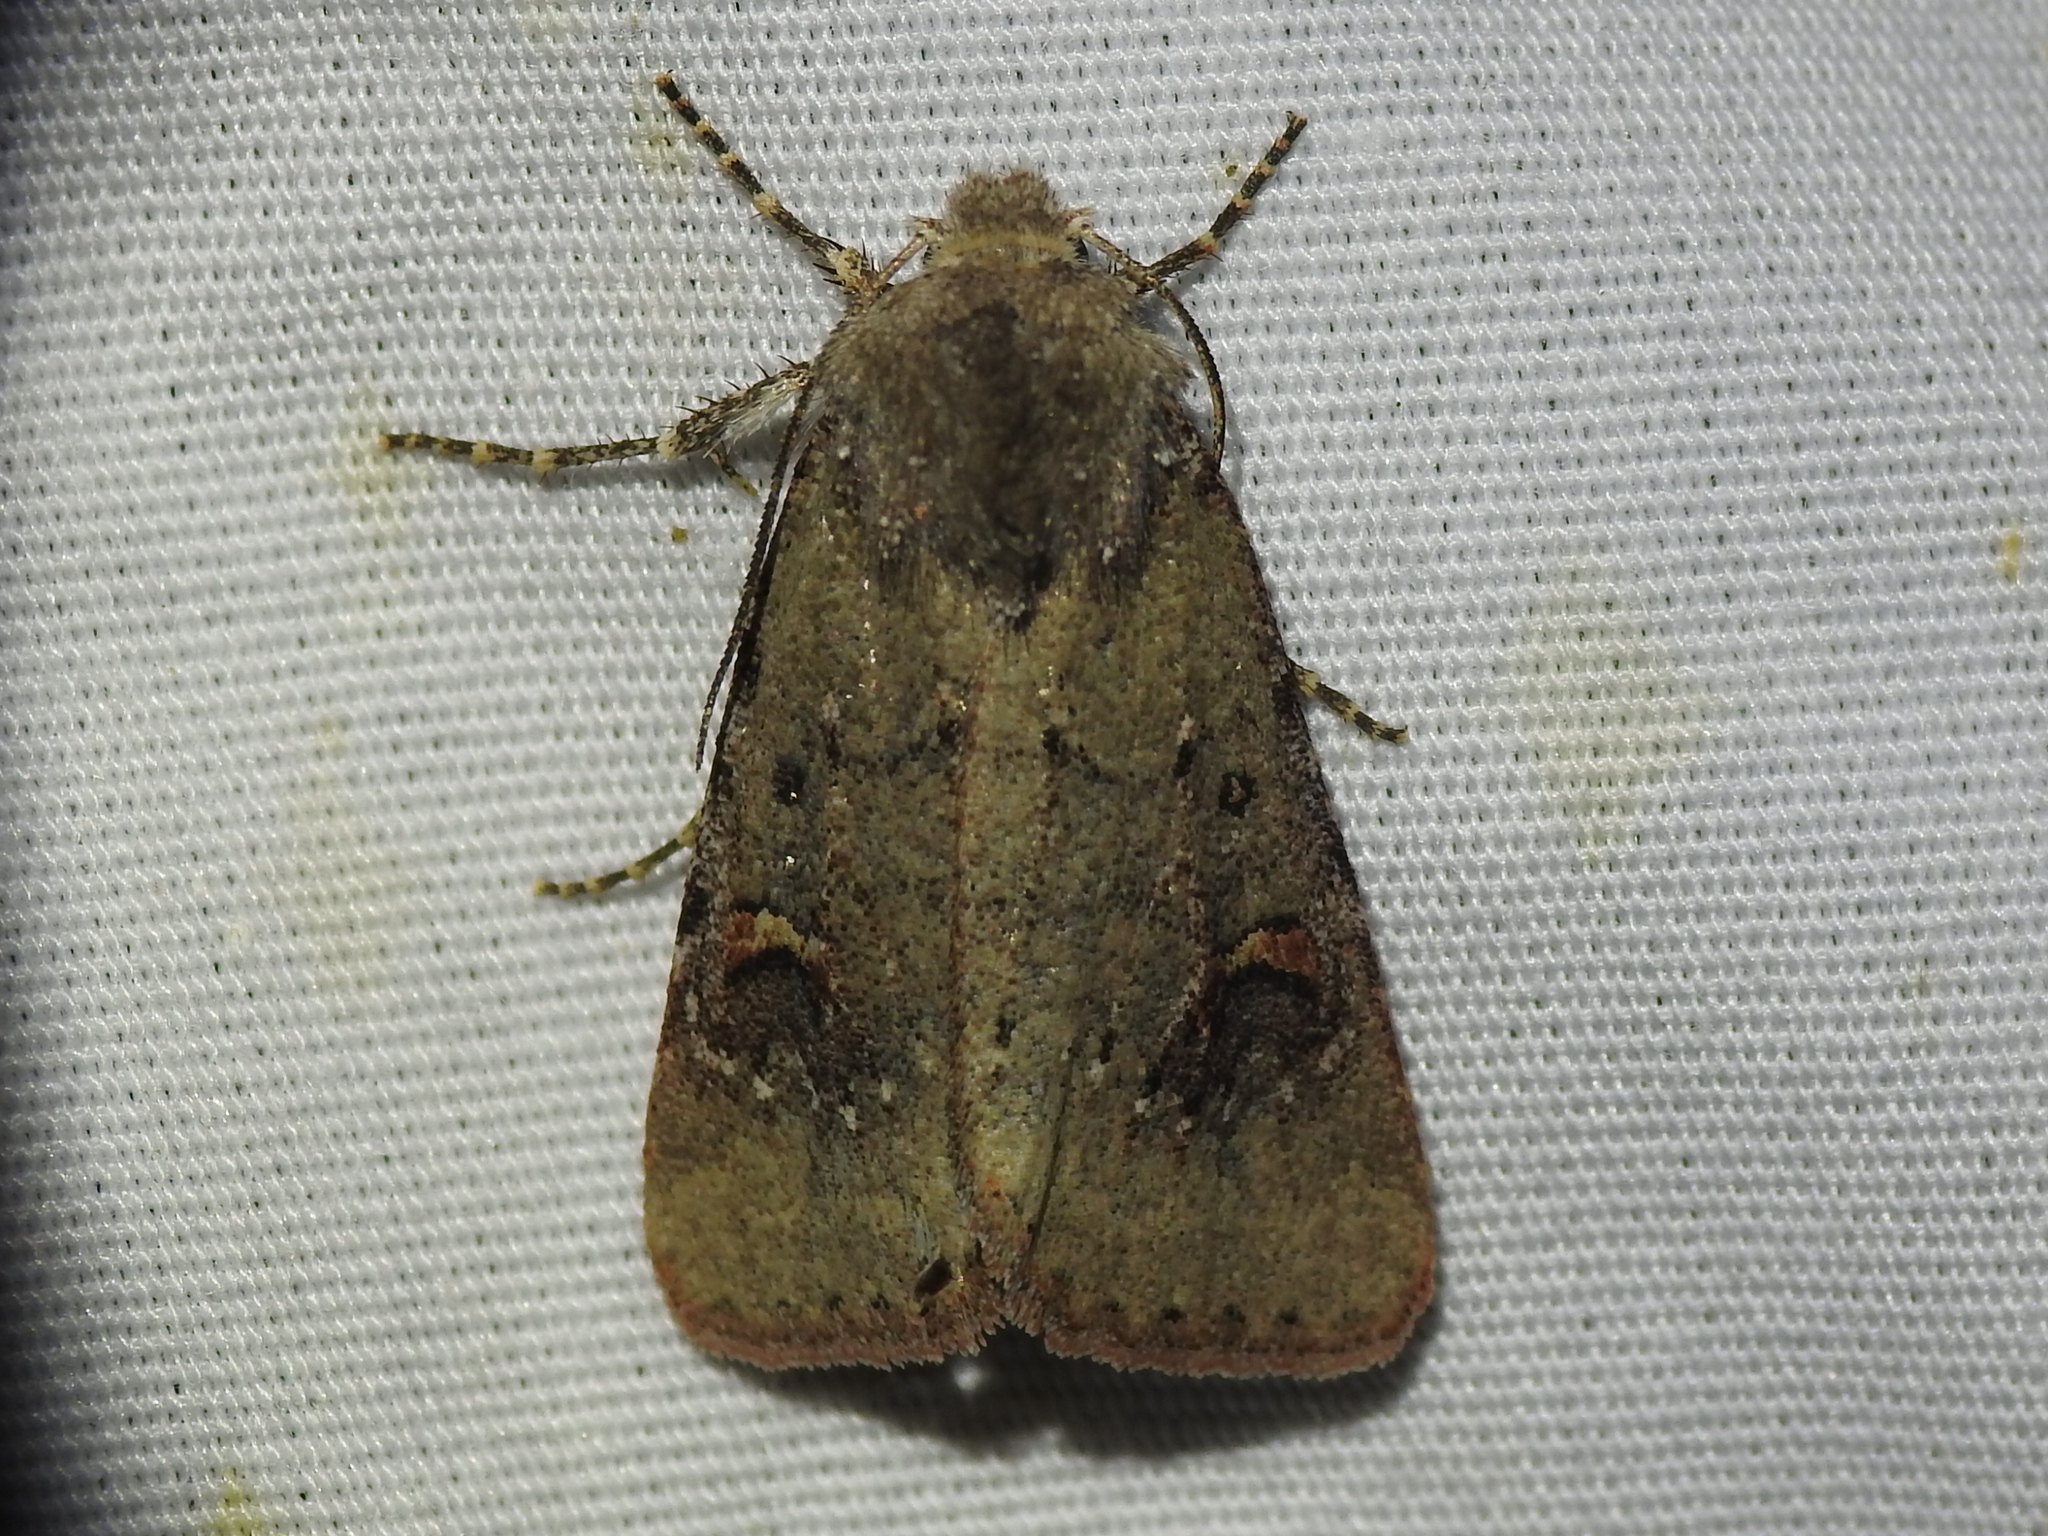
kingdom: Animalia
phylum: Arthropoda
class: Insecta
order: Lepidoptera
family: Noctuidae
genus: Eucoptocnemis
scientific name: Eucoptocnemis fimbriaris
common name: Fringed dart
